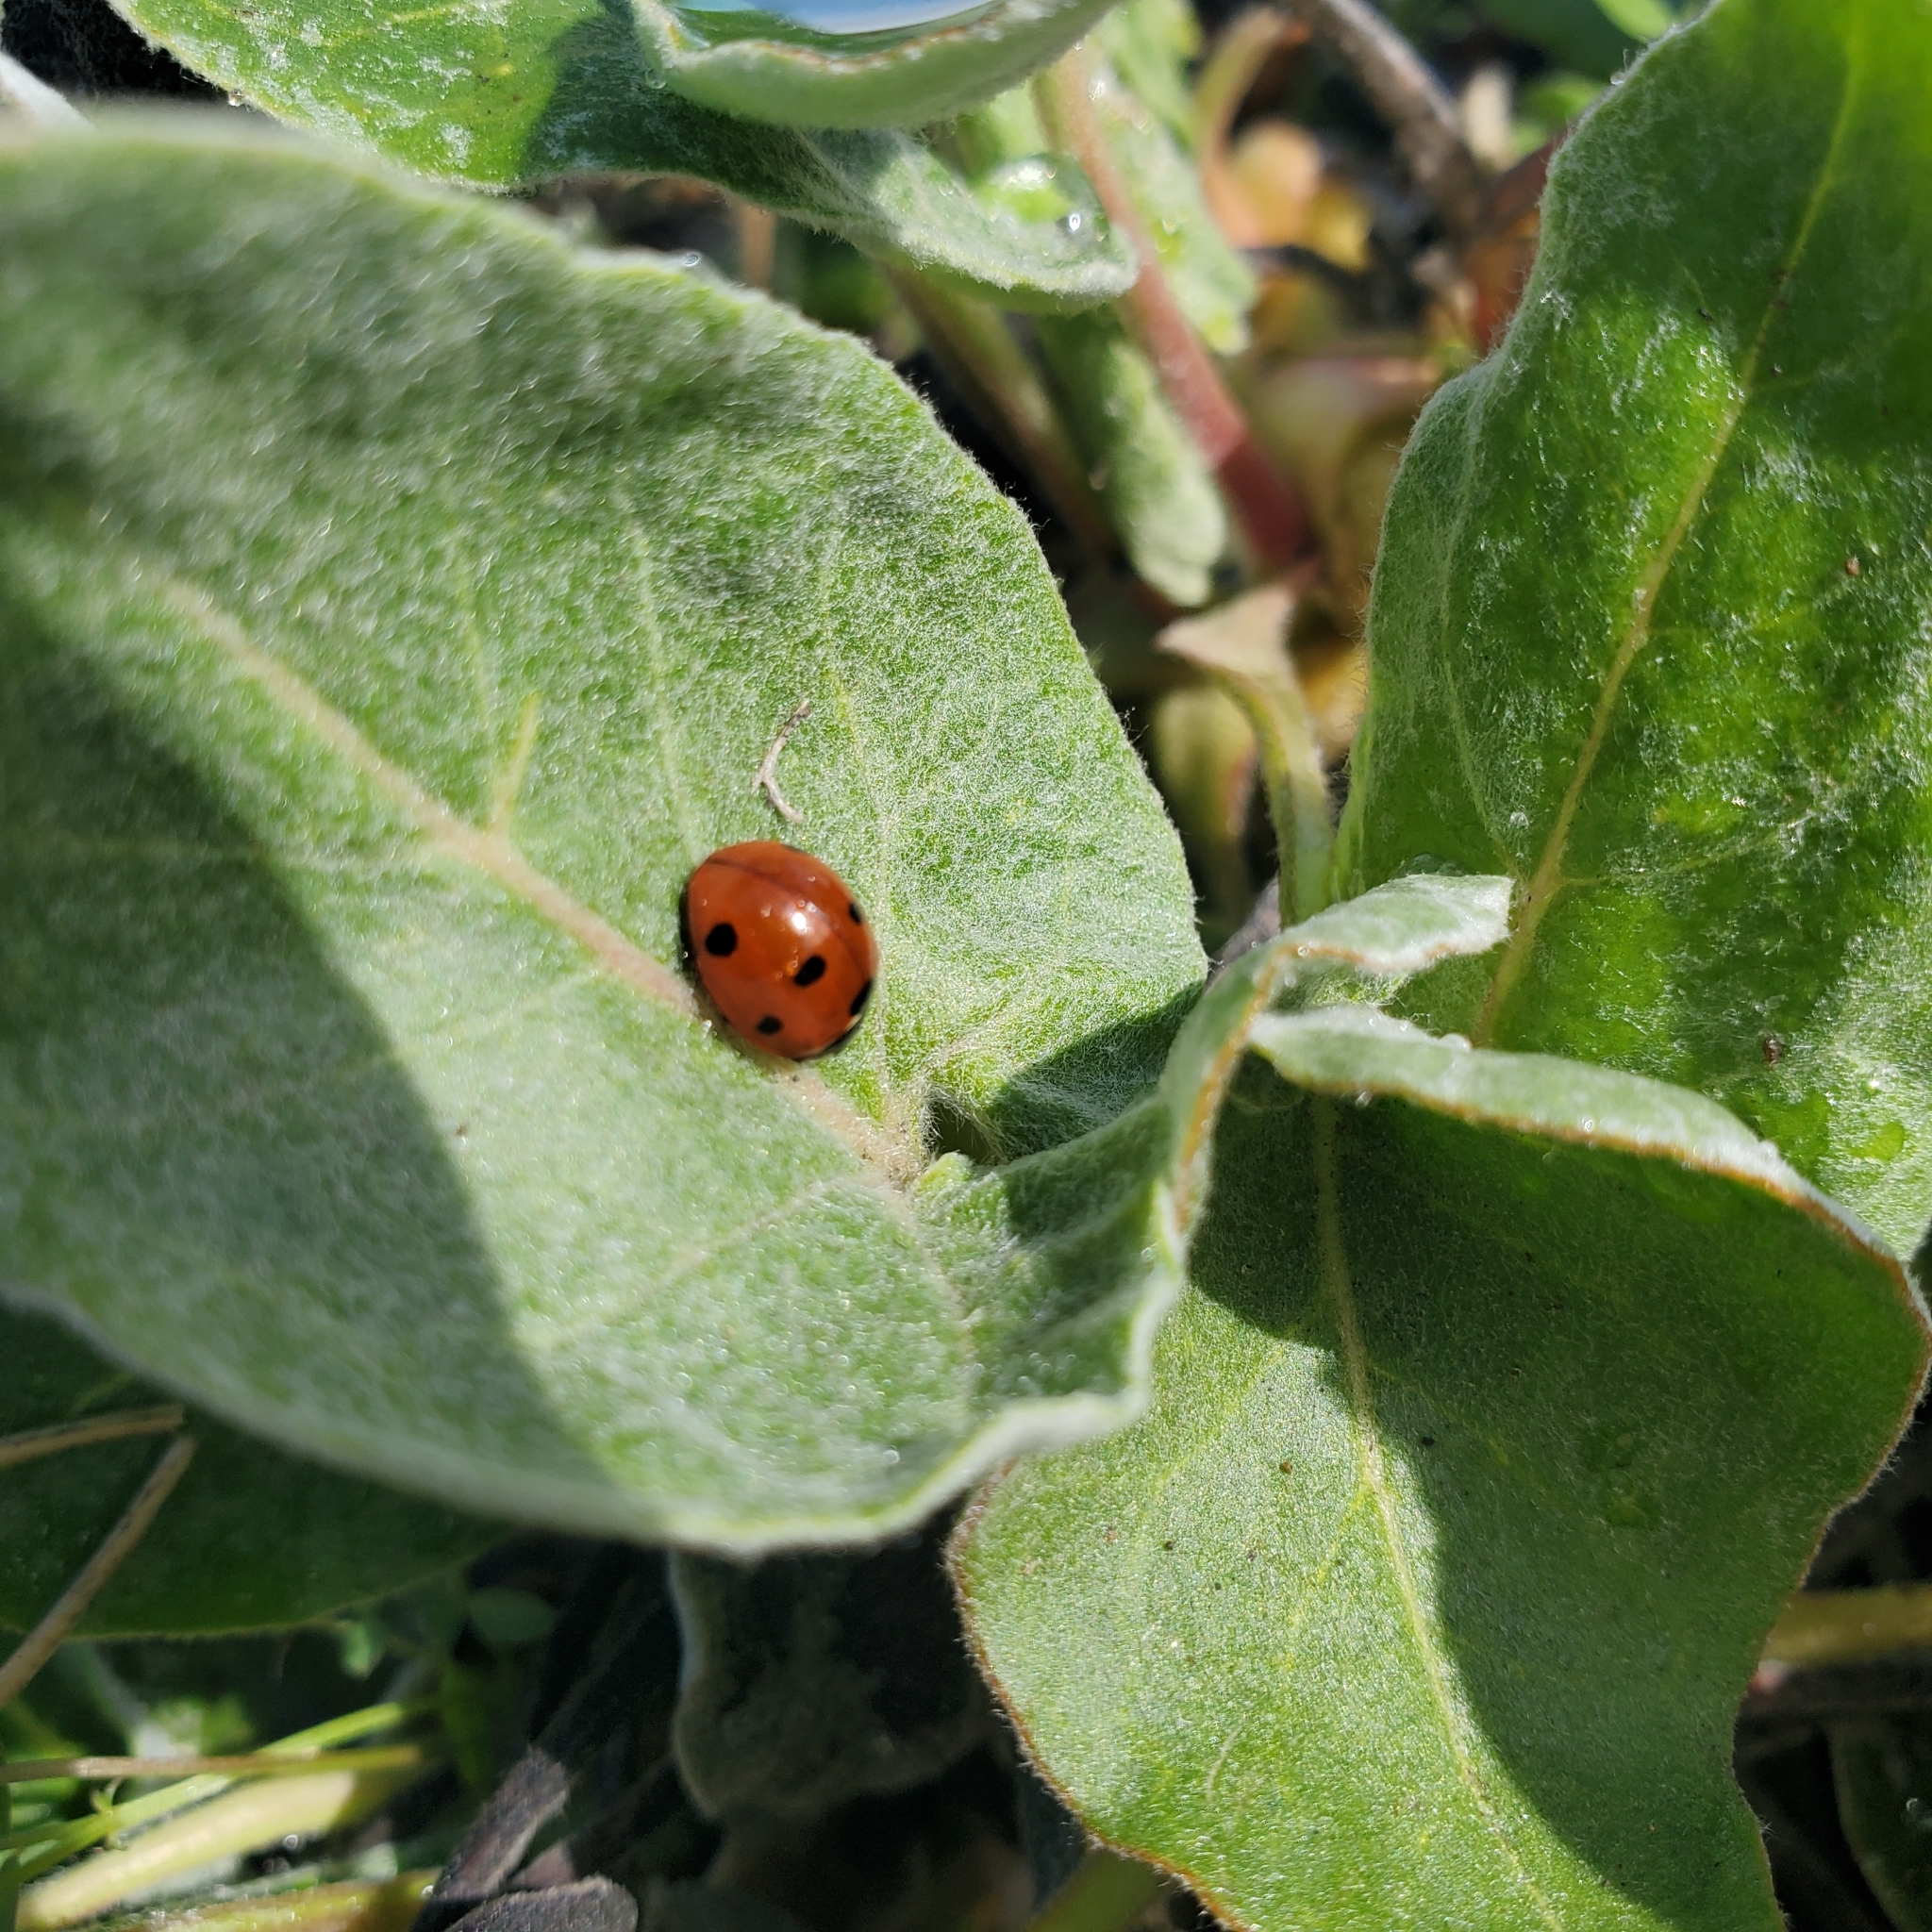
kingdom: Animalia
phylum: Arthropoda
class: Insecta
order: Coleoptera
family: Coccinellidae
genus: Coccinella
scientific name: Coccinella septempunctata
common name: Sevenspotted lady beetle
